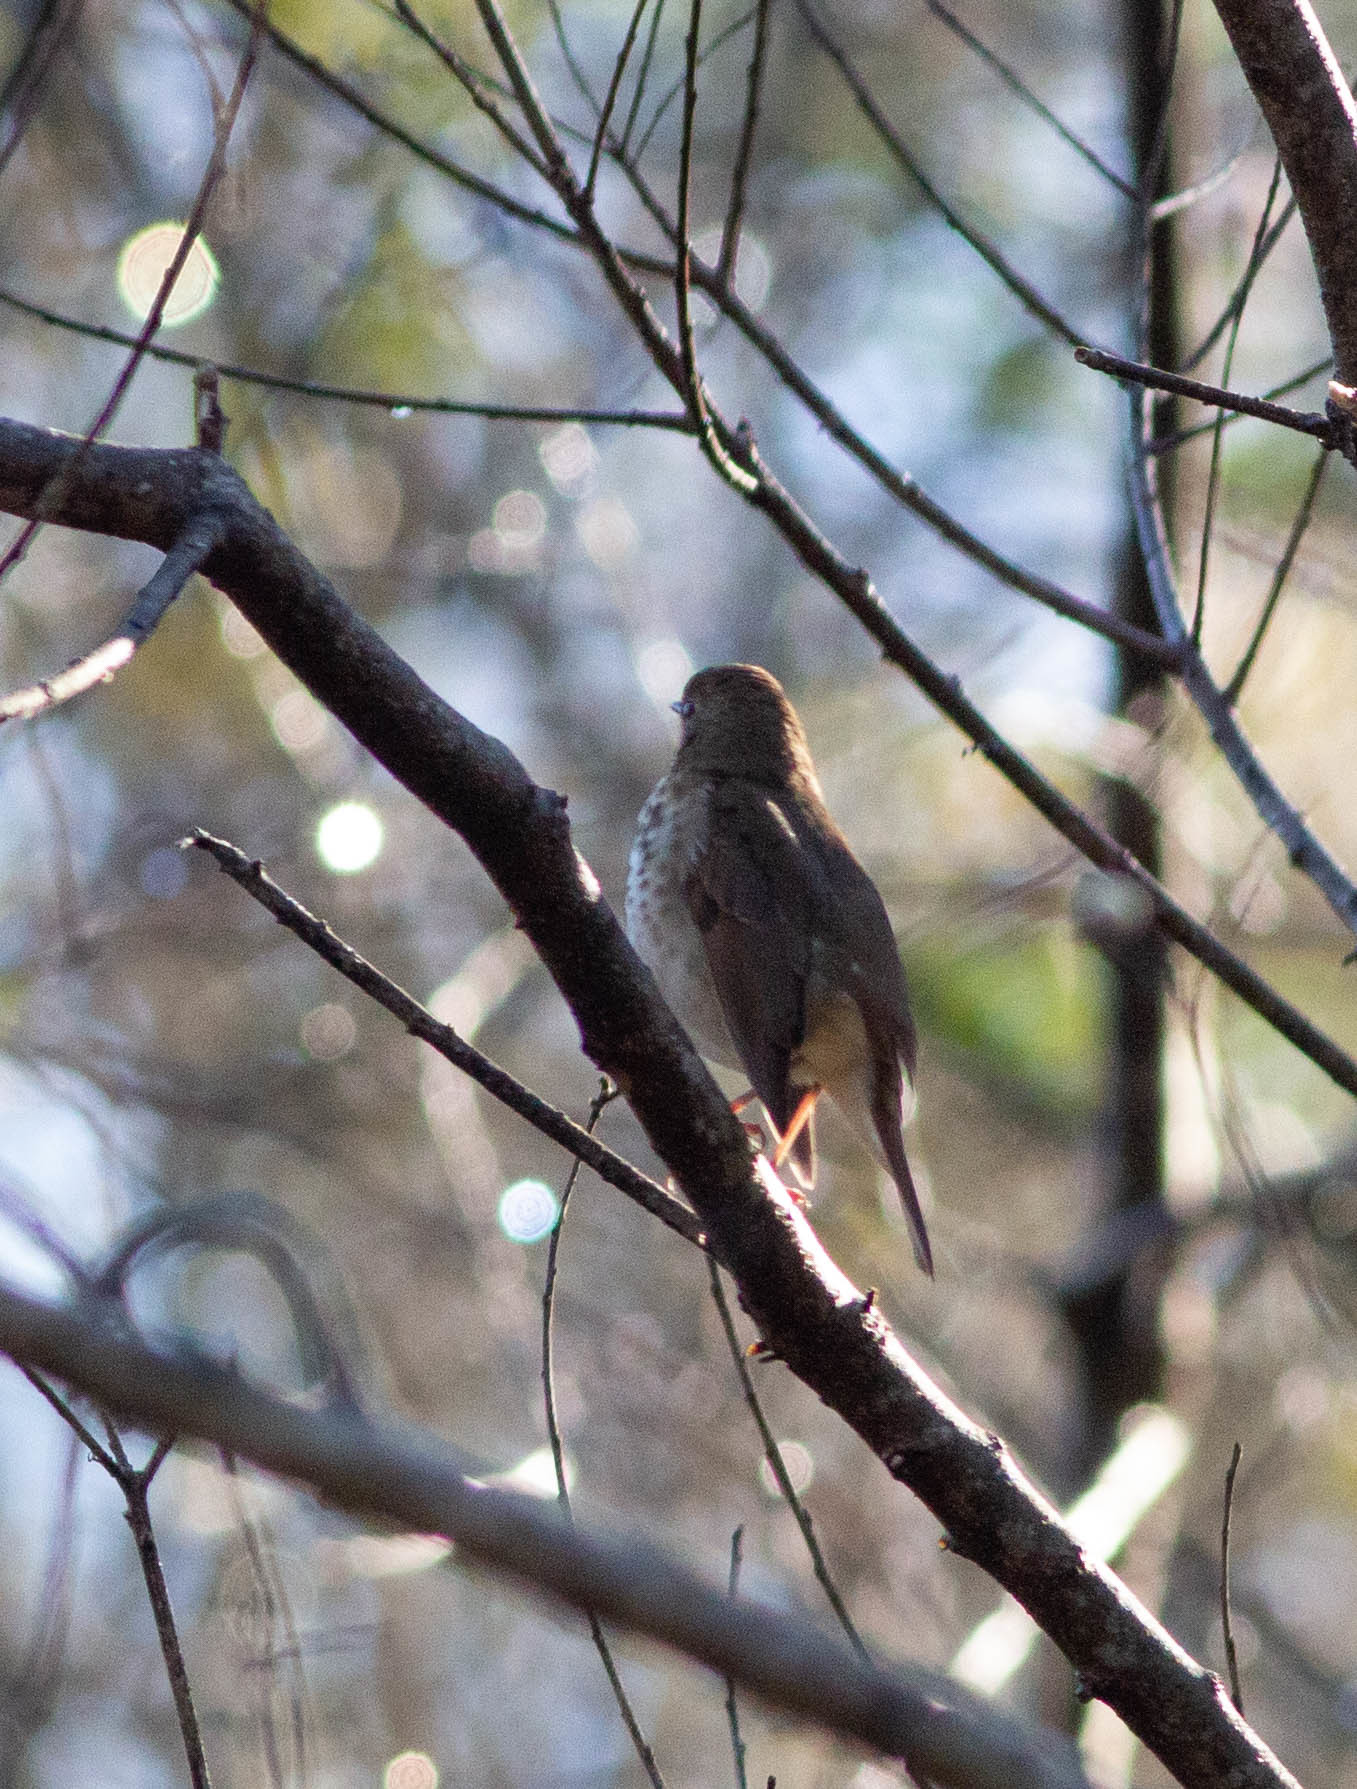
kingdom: Animalia
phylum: Chordata
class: Aves
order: Passeriformes
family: Turdidae
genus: Catharus
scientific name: Catharus guttatus
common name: Hermit thrush
